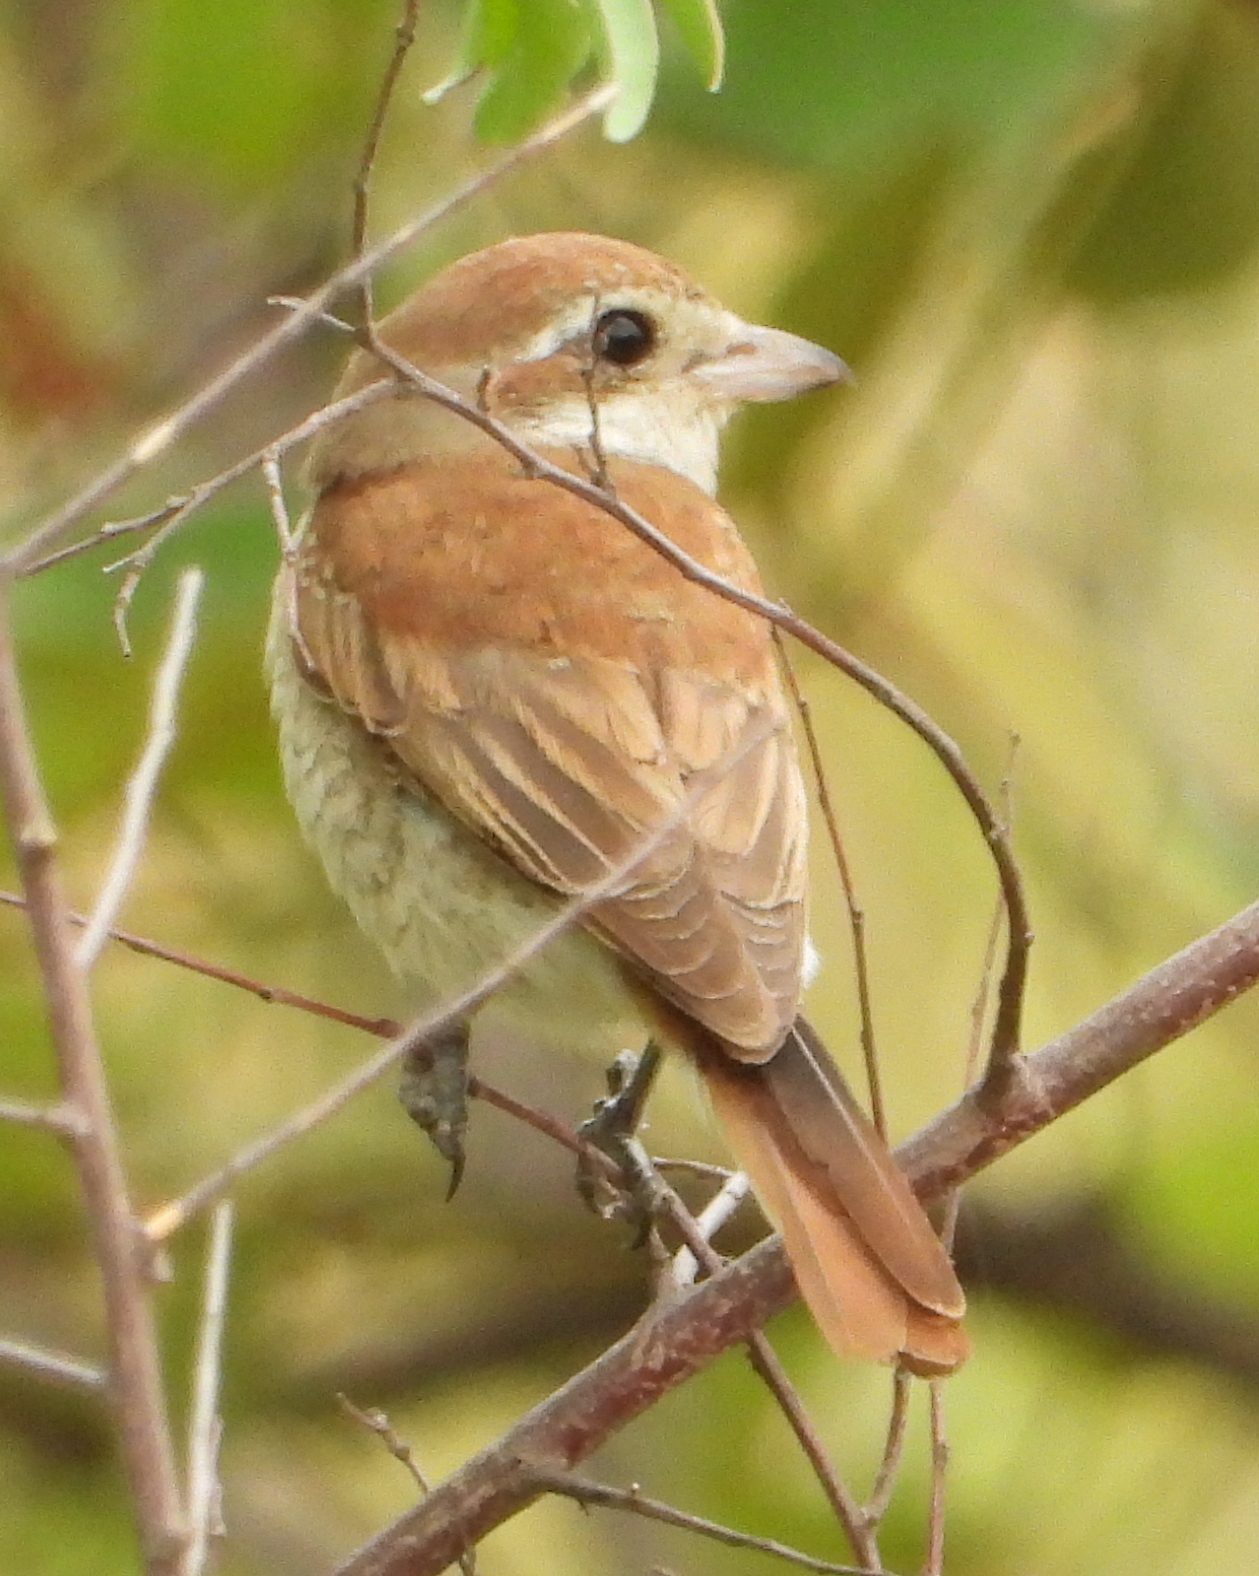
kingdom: Animalia
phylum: Chordata
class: Aves
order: Passeriformes
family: Laniidae
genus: Lanius
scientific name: Lanius collurio
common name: Red-backed shrike
